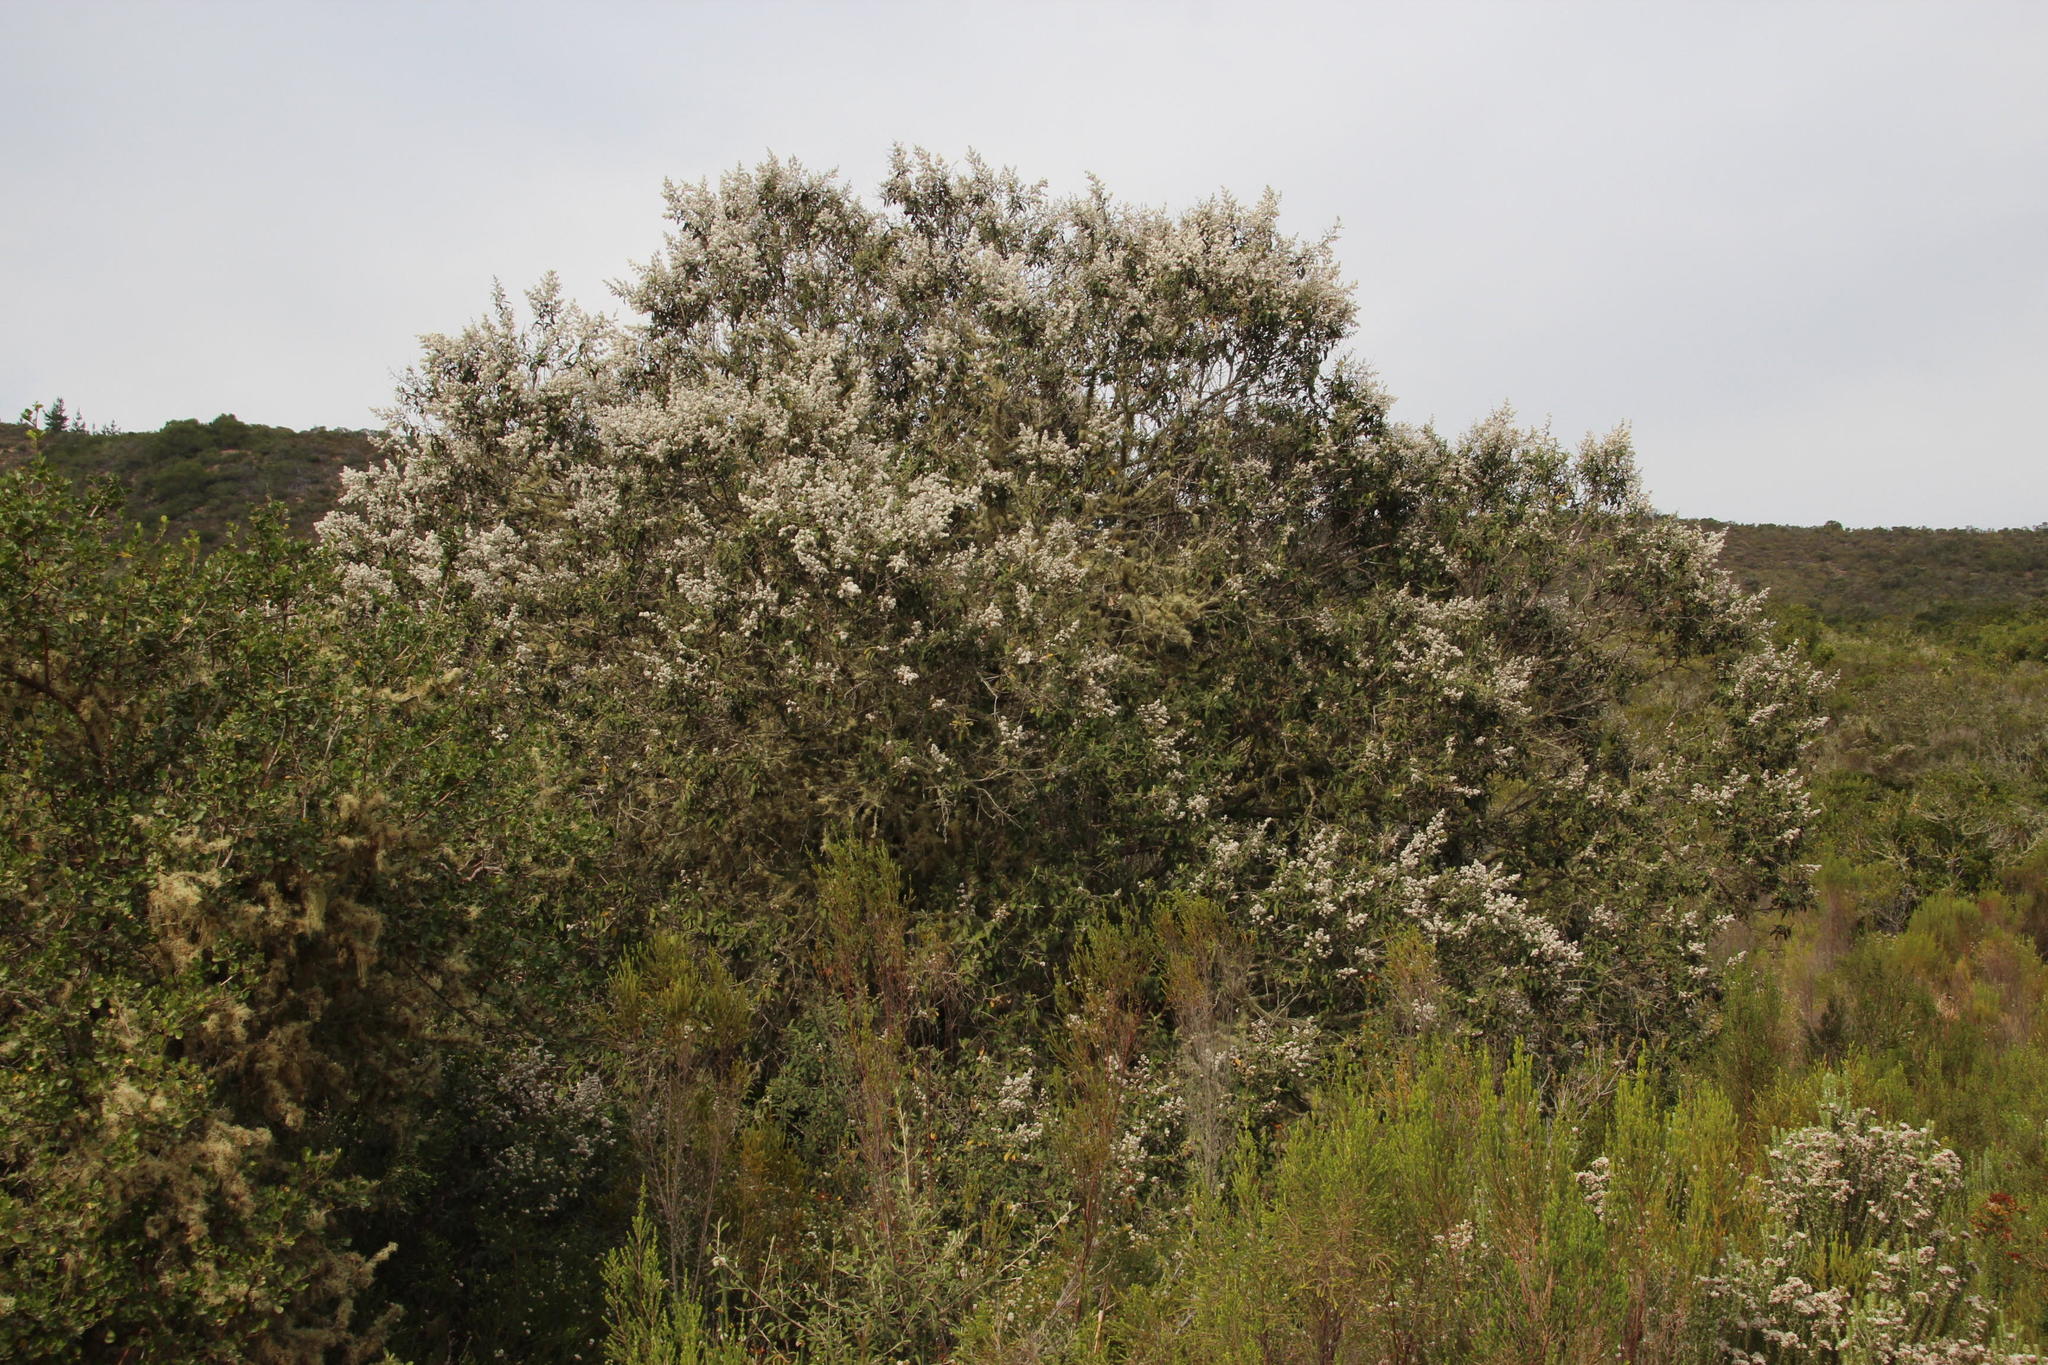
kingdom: Plantae
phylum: Tracheophyta
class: Magnoliopsida
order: Asterales
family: Asteraceae
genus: Tarchonanthus
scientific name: Tarchonanthus littoralis
